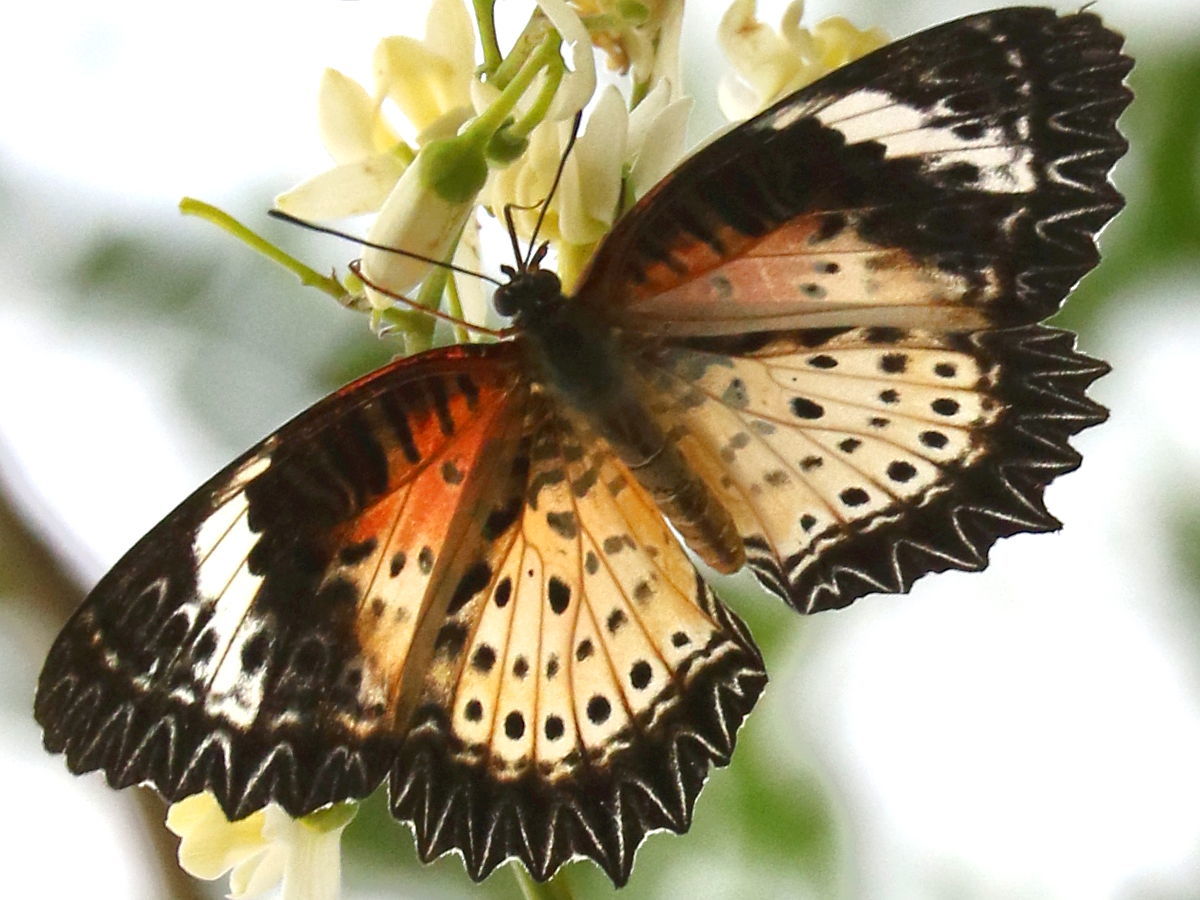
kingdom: Animalia
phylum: Arthropoda
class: Insecta
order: Lepidoptera
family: Nymphalidae
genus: Cethosia
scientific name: Cethosia cyane
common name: Leopard lacewing butterfly
